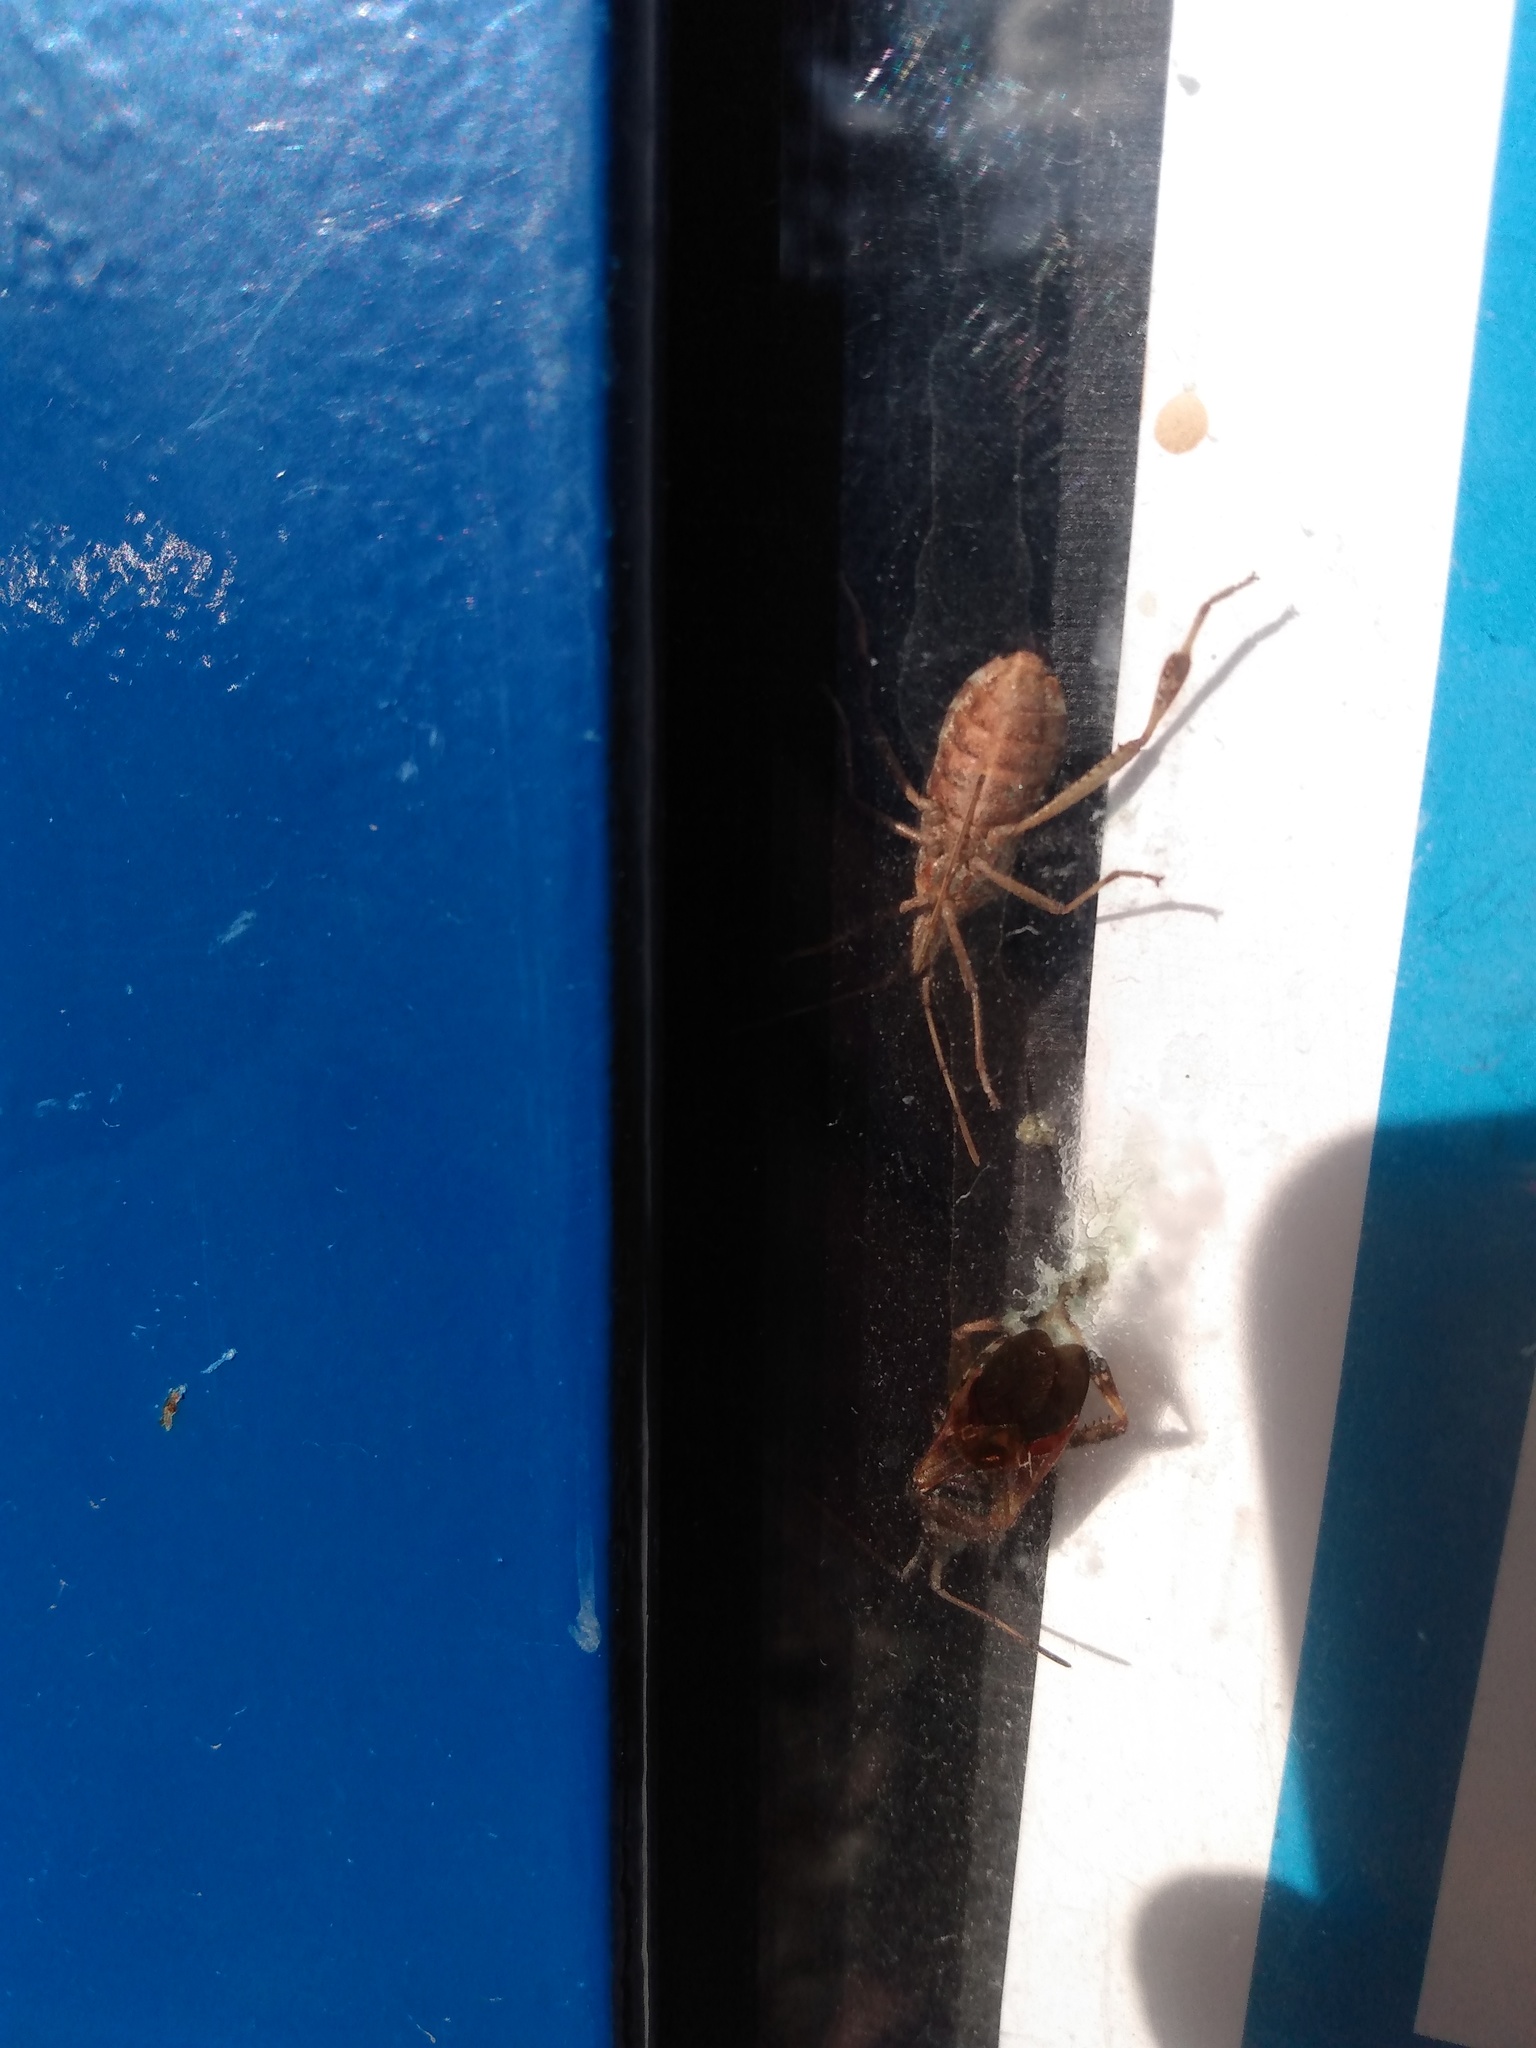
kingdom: Animalia
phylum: Arthropoda
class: Insecta
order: Hemiptera
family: Coreidae
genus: Leptoglossus
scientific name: Leptoglossus occidentalis
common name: Western conifer-seed bug
